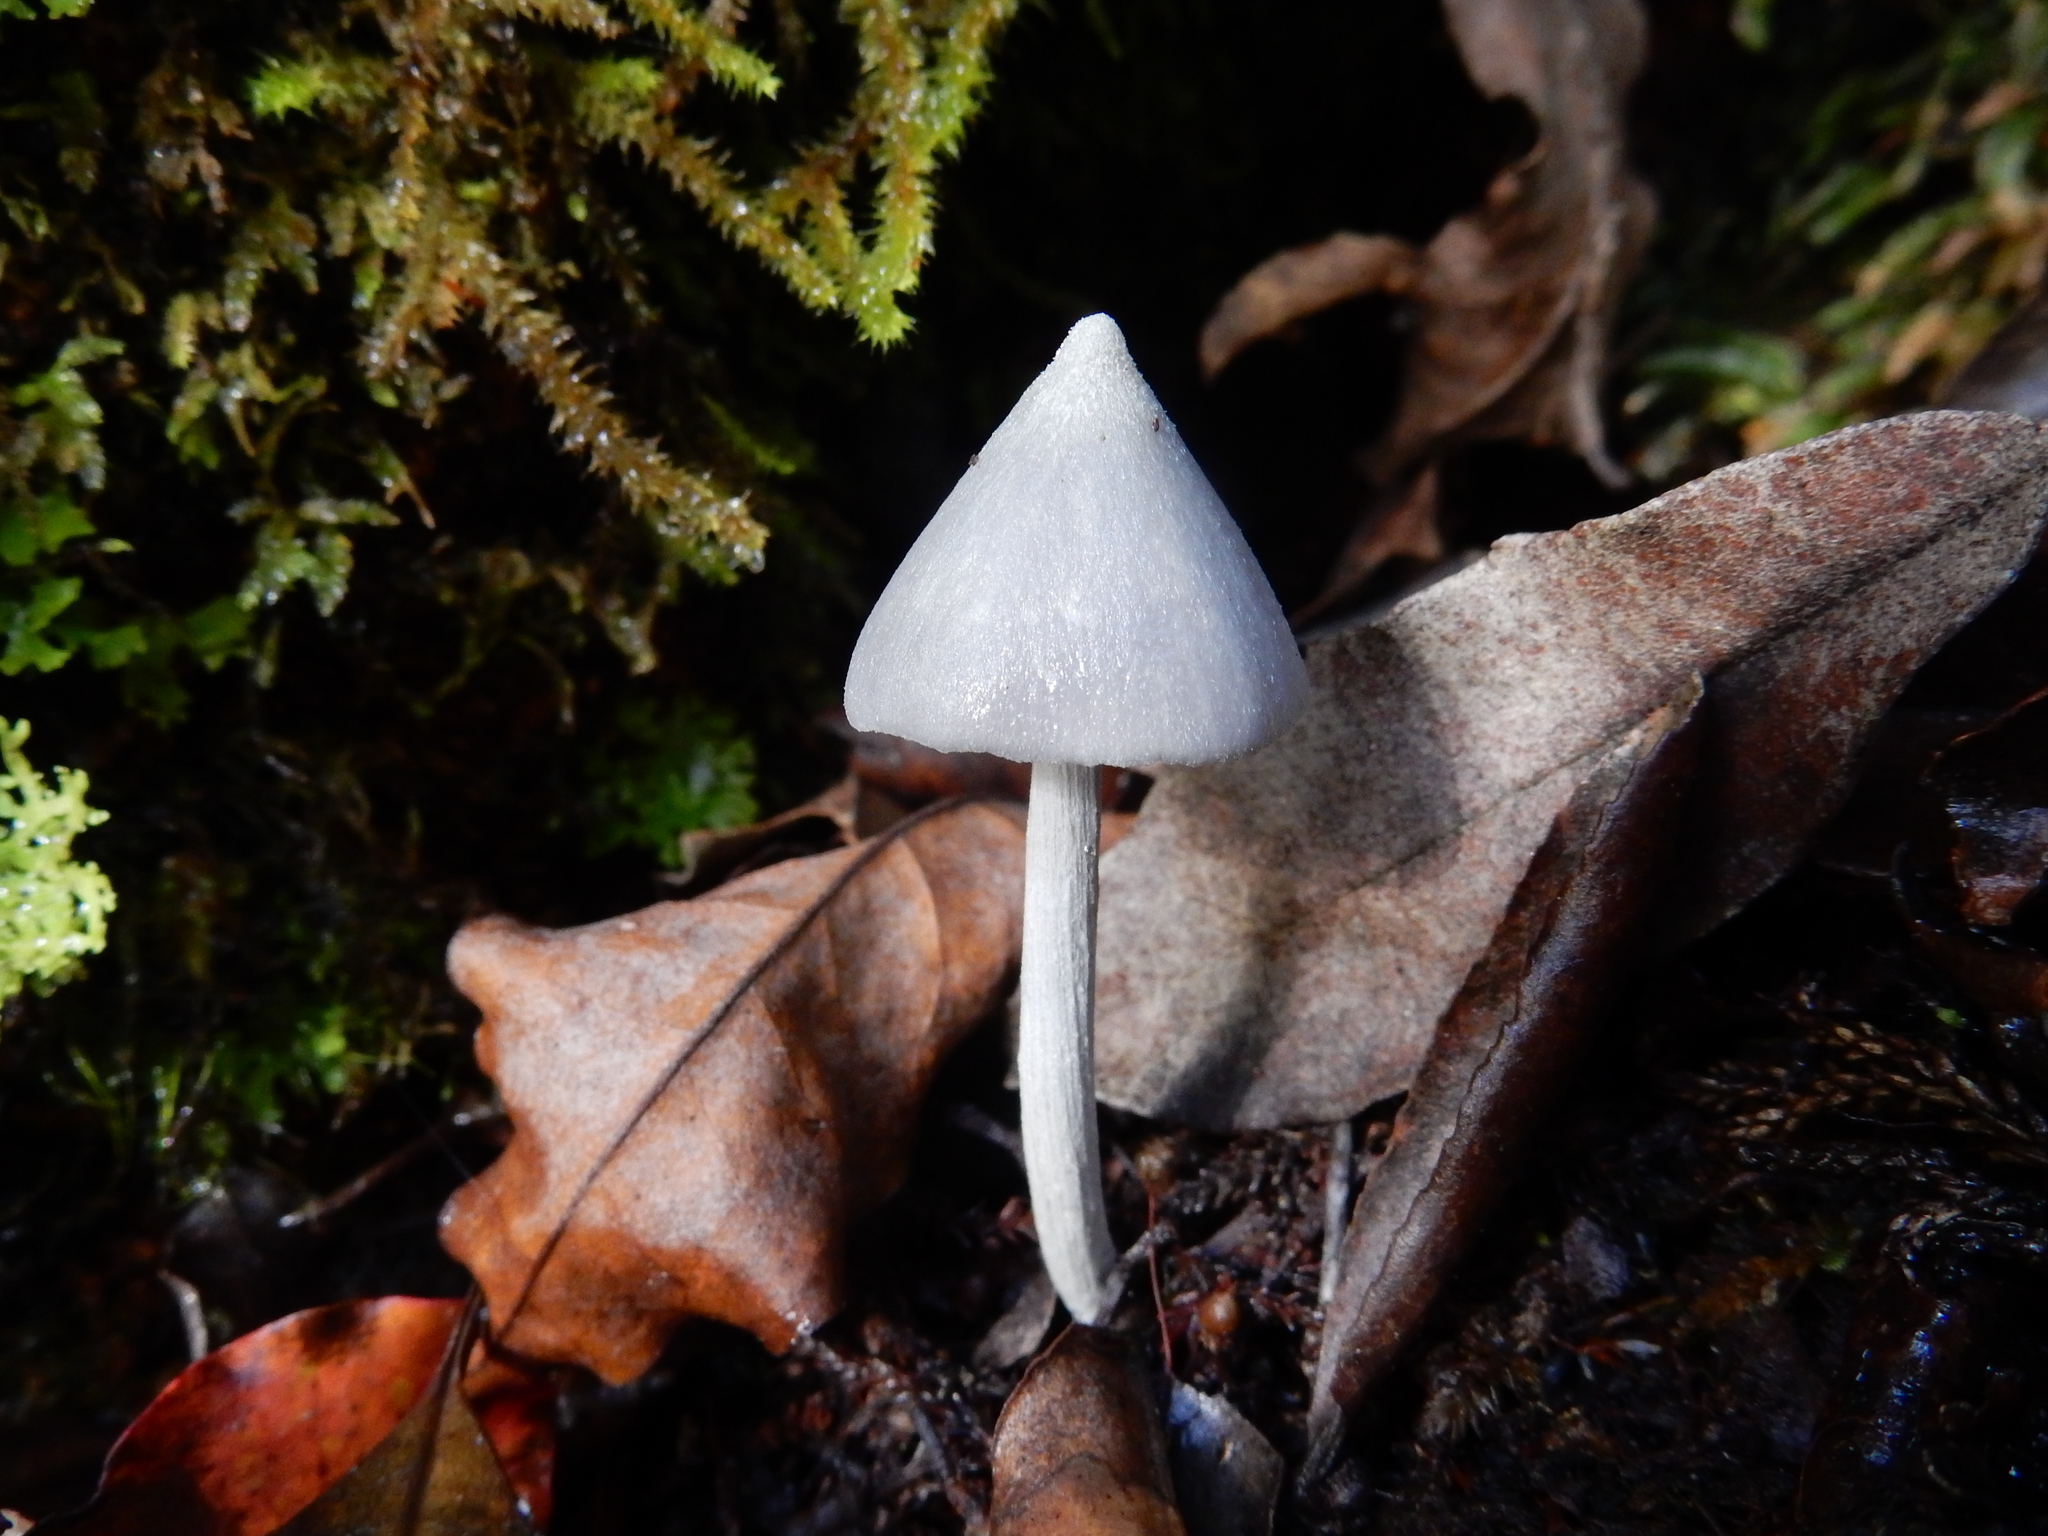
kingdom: Fungi
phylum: Basidiomycota
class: Agaricomycetes
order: Agaricales
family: Entolomataceae
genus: Entoloma
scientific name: Entoloma canoconicum
